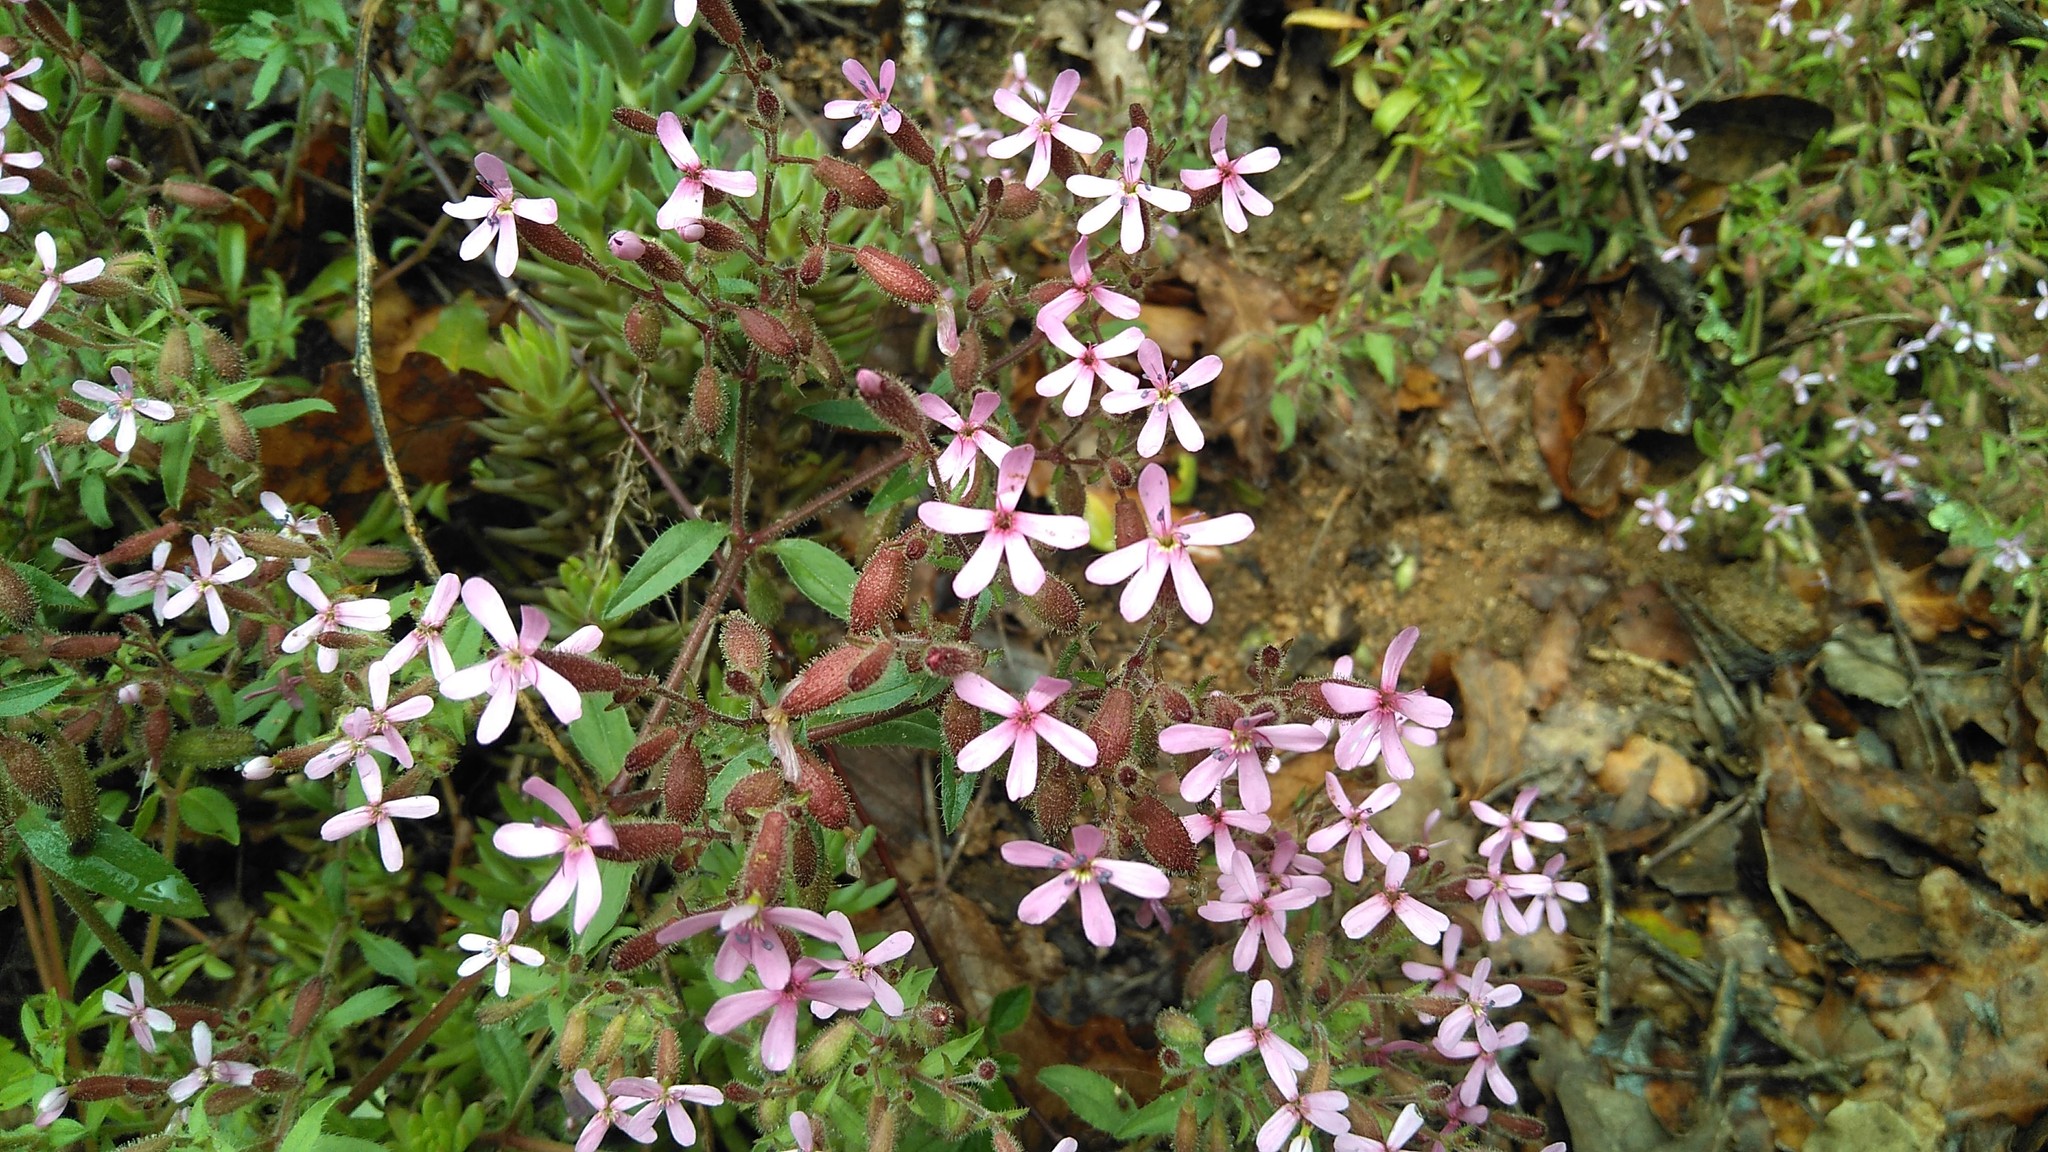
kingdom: Plantae
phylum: Tracheophyta
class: Magnoliopsida
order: Caryophyllales
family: Caryophyllaceae
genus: Saponaria
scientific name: Saponaria ocymoides
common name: Rock soapwort
